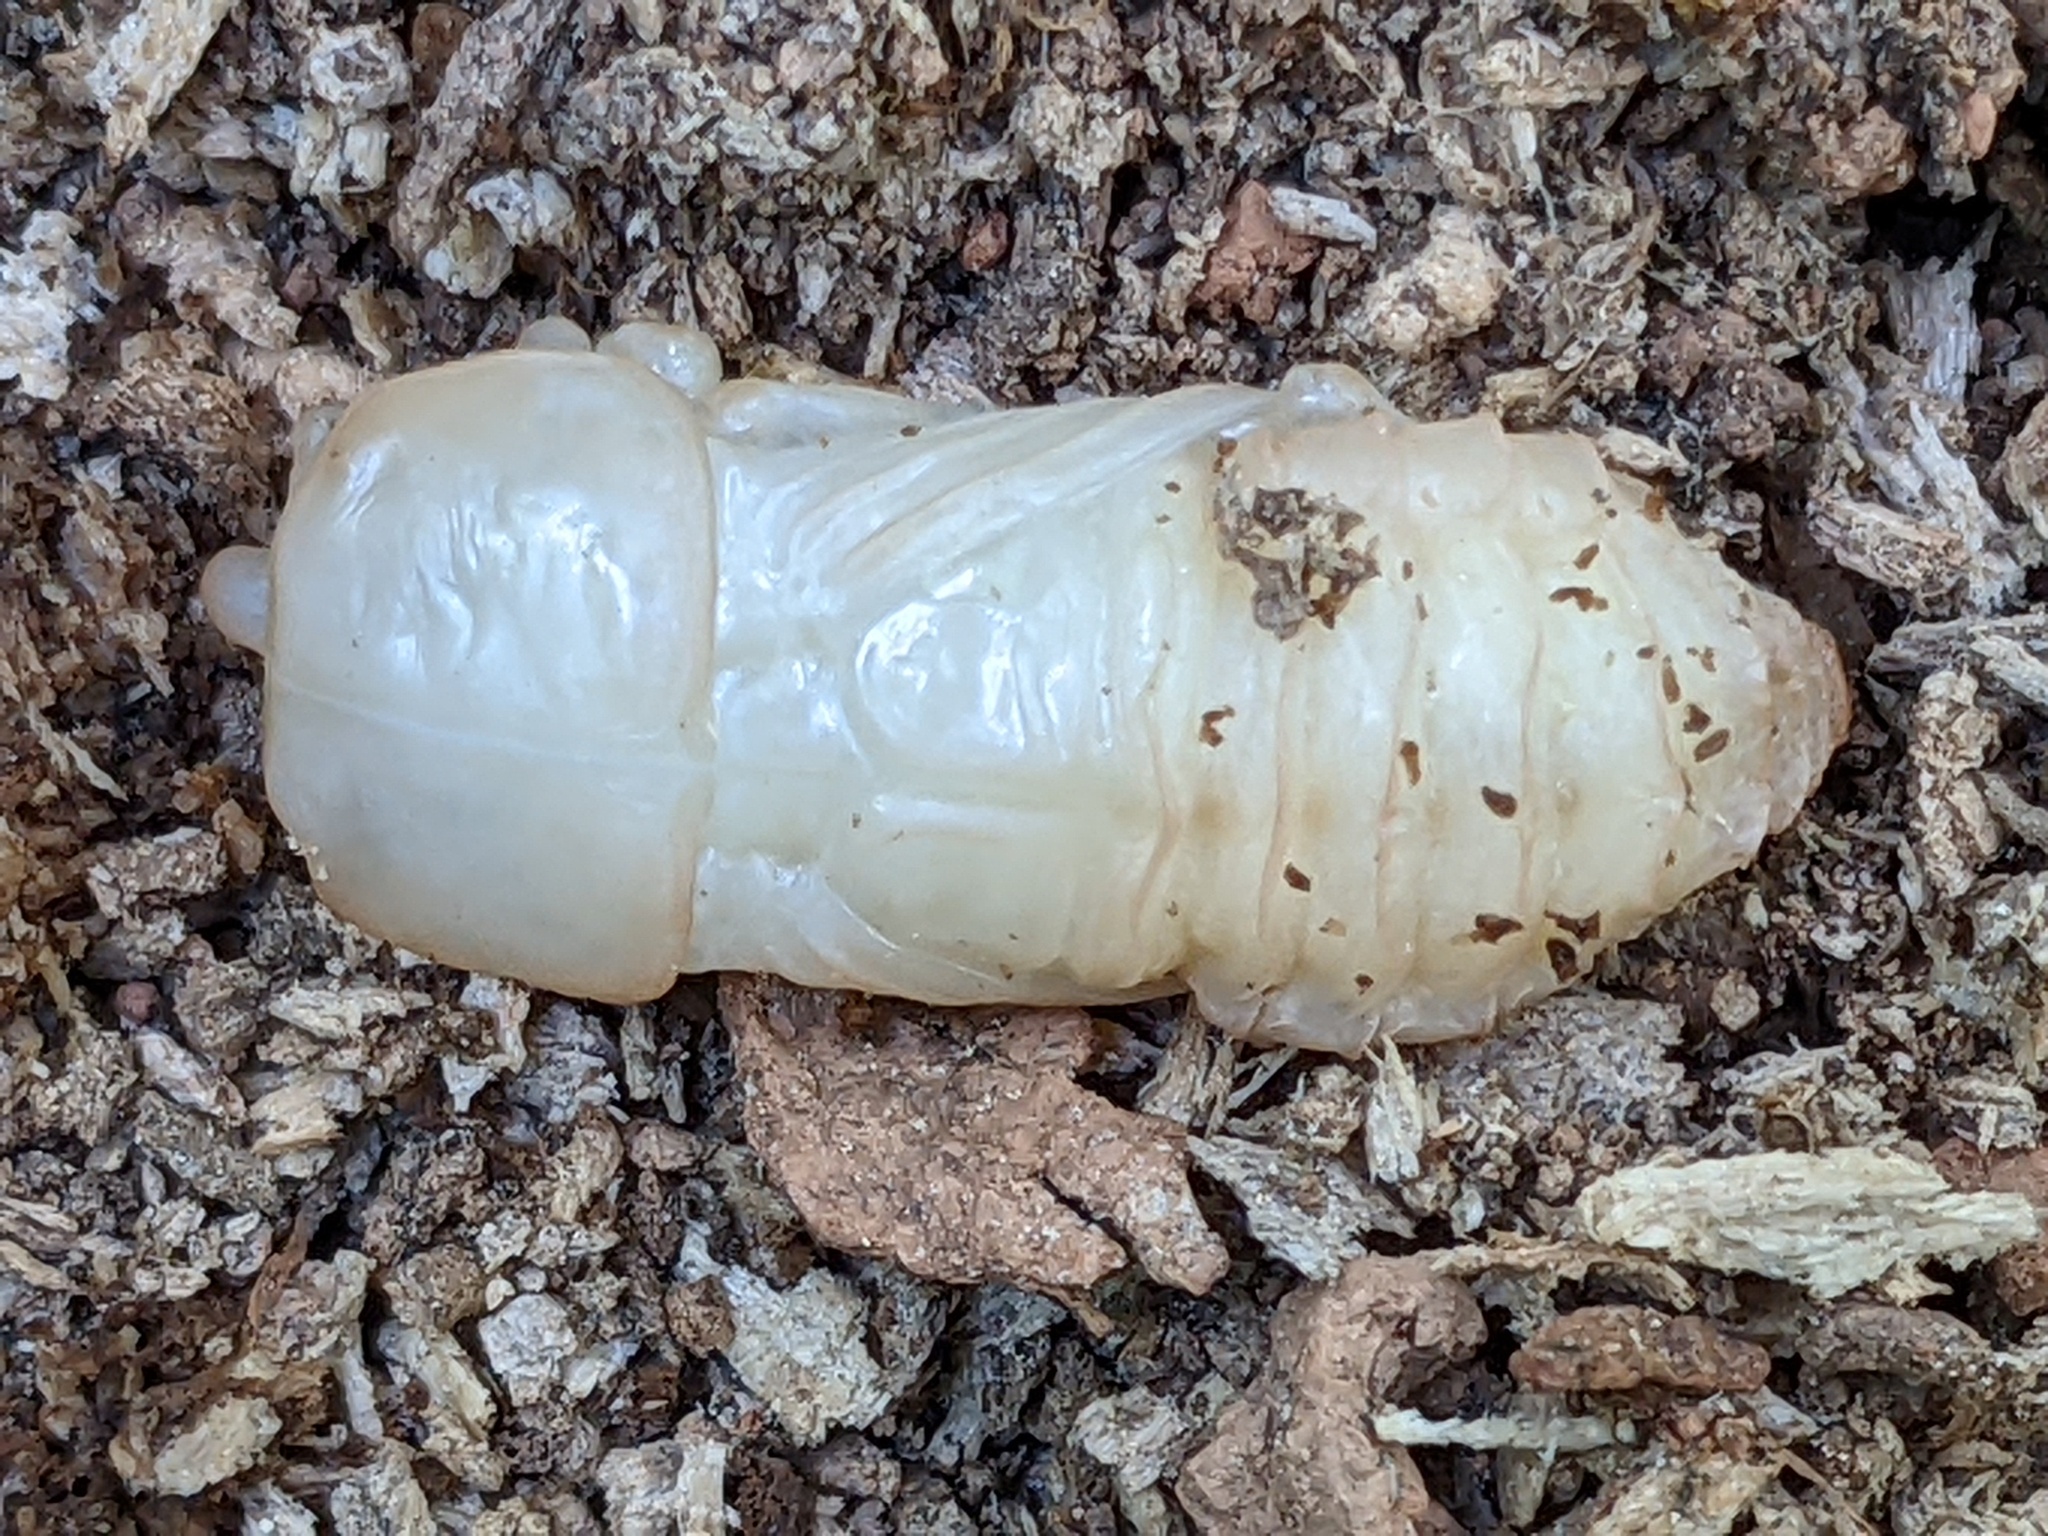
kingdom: Animalia
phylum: Arthropoda
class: Insecta
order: Coleoptera
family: Passalidae
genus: Odontotaenius
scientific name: Odontotaenius disjunctus
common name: Patent leather beetle
